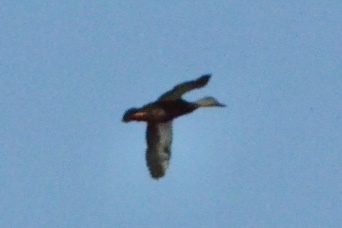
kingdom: Animalia
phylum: Chordata
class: Aves
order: Anseriformes
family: Anatidae
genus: Anas
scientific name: Anas rubripes
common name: American black duck
